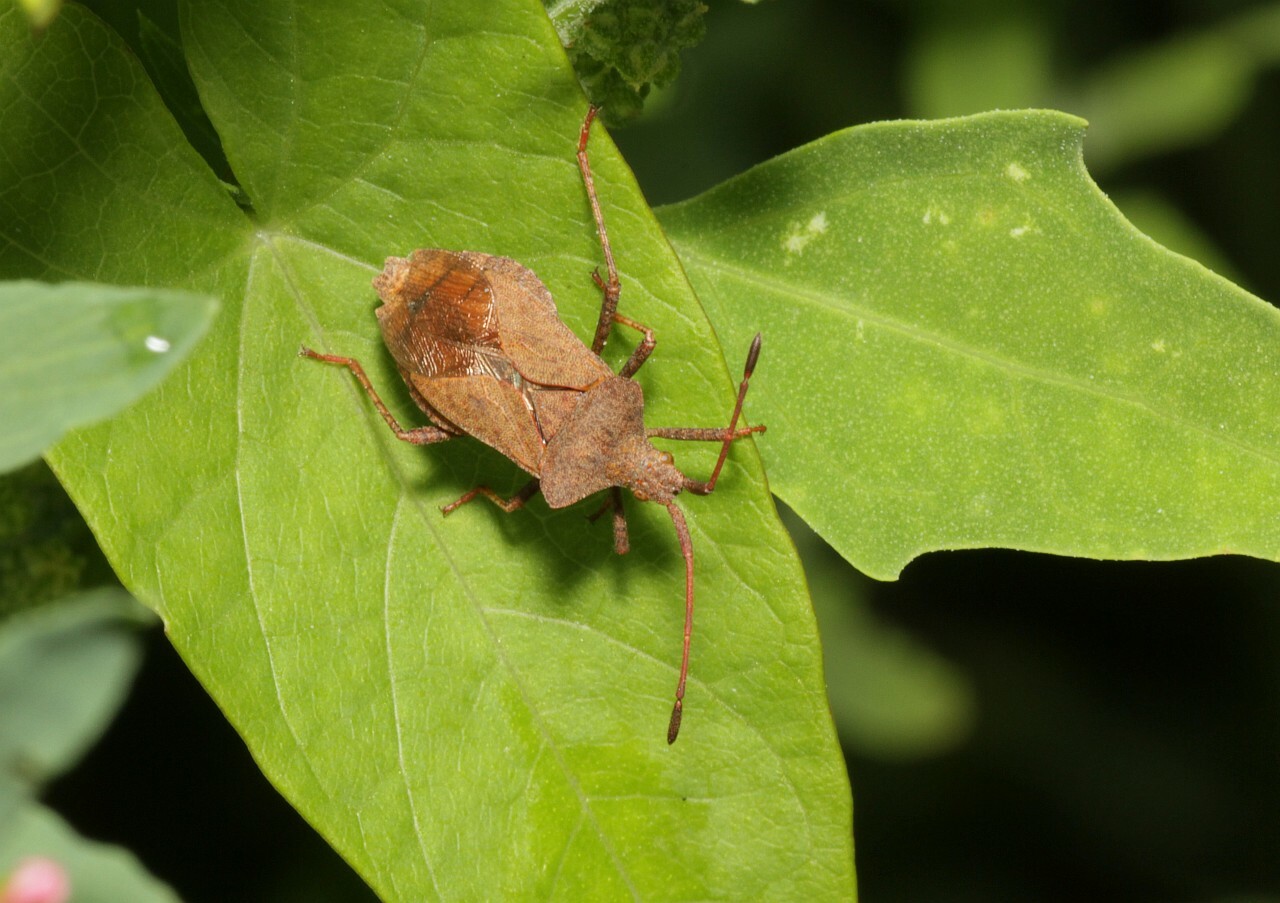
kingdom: Animalia
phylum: Arthropoda
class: Insecta
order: Hemiptera
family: Coreidae
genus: Coreus
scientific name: Coreus marginatus
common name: Dock bug
